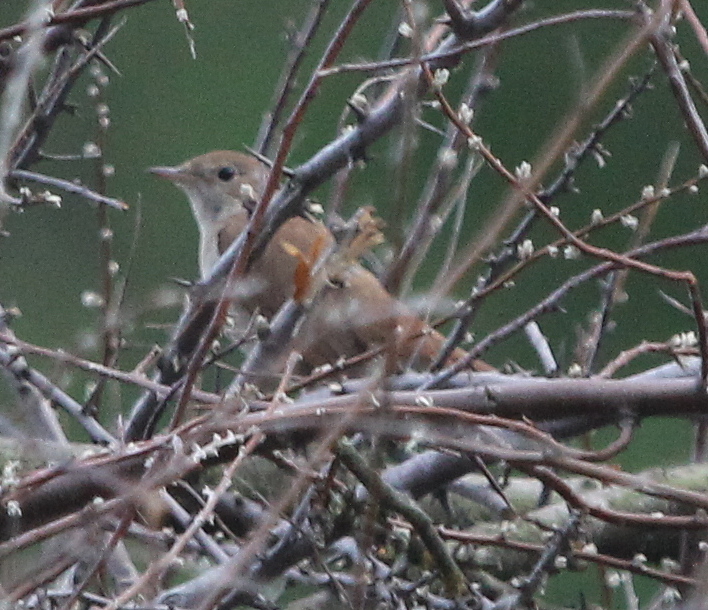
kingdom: Animalia
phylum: Chordata
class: Aves
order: Passeriformes
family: Muscicapidae
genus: Luscinia
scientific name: Luscinia megarhynchos
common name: Common nightingale
